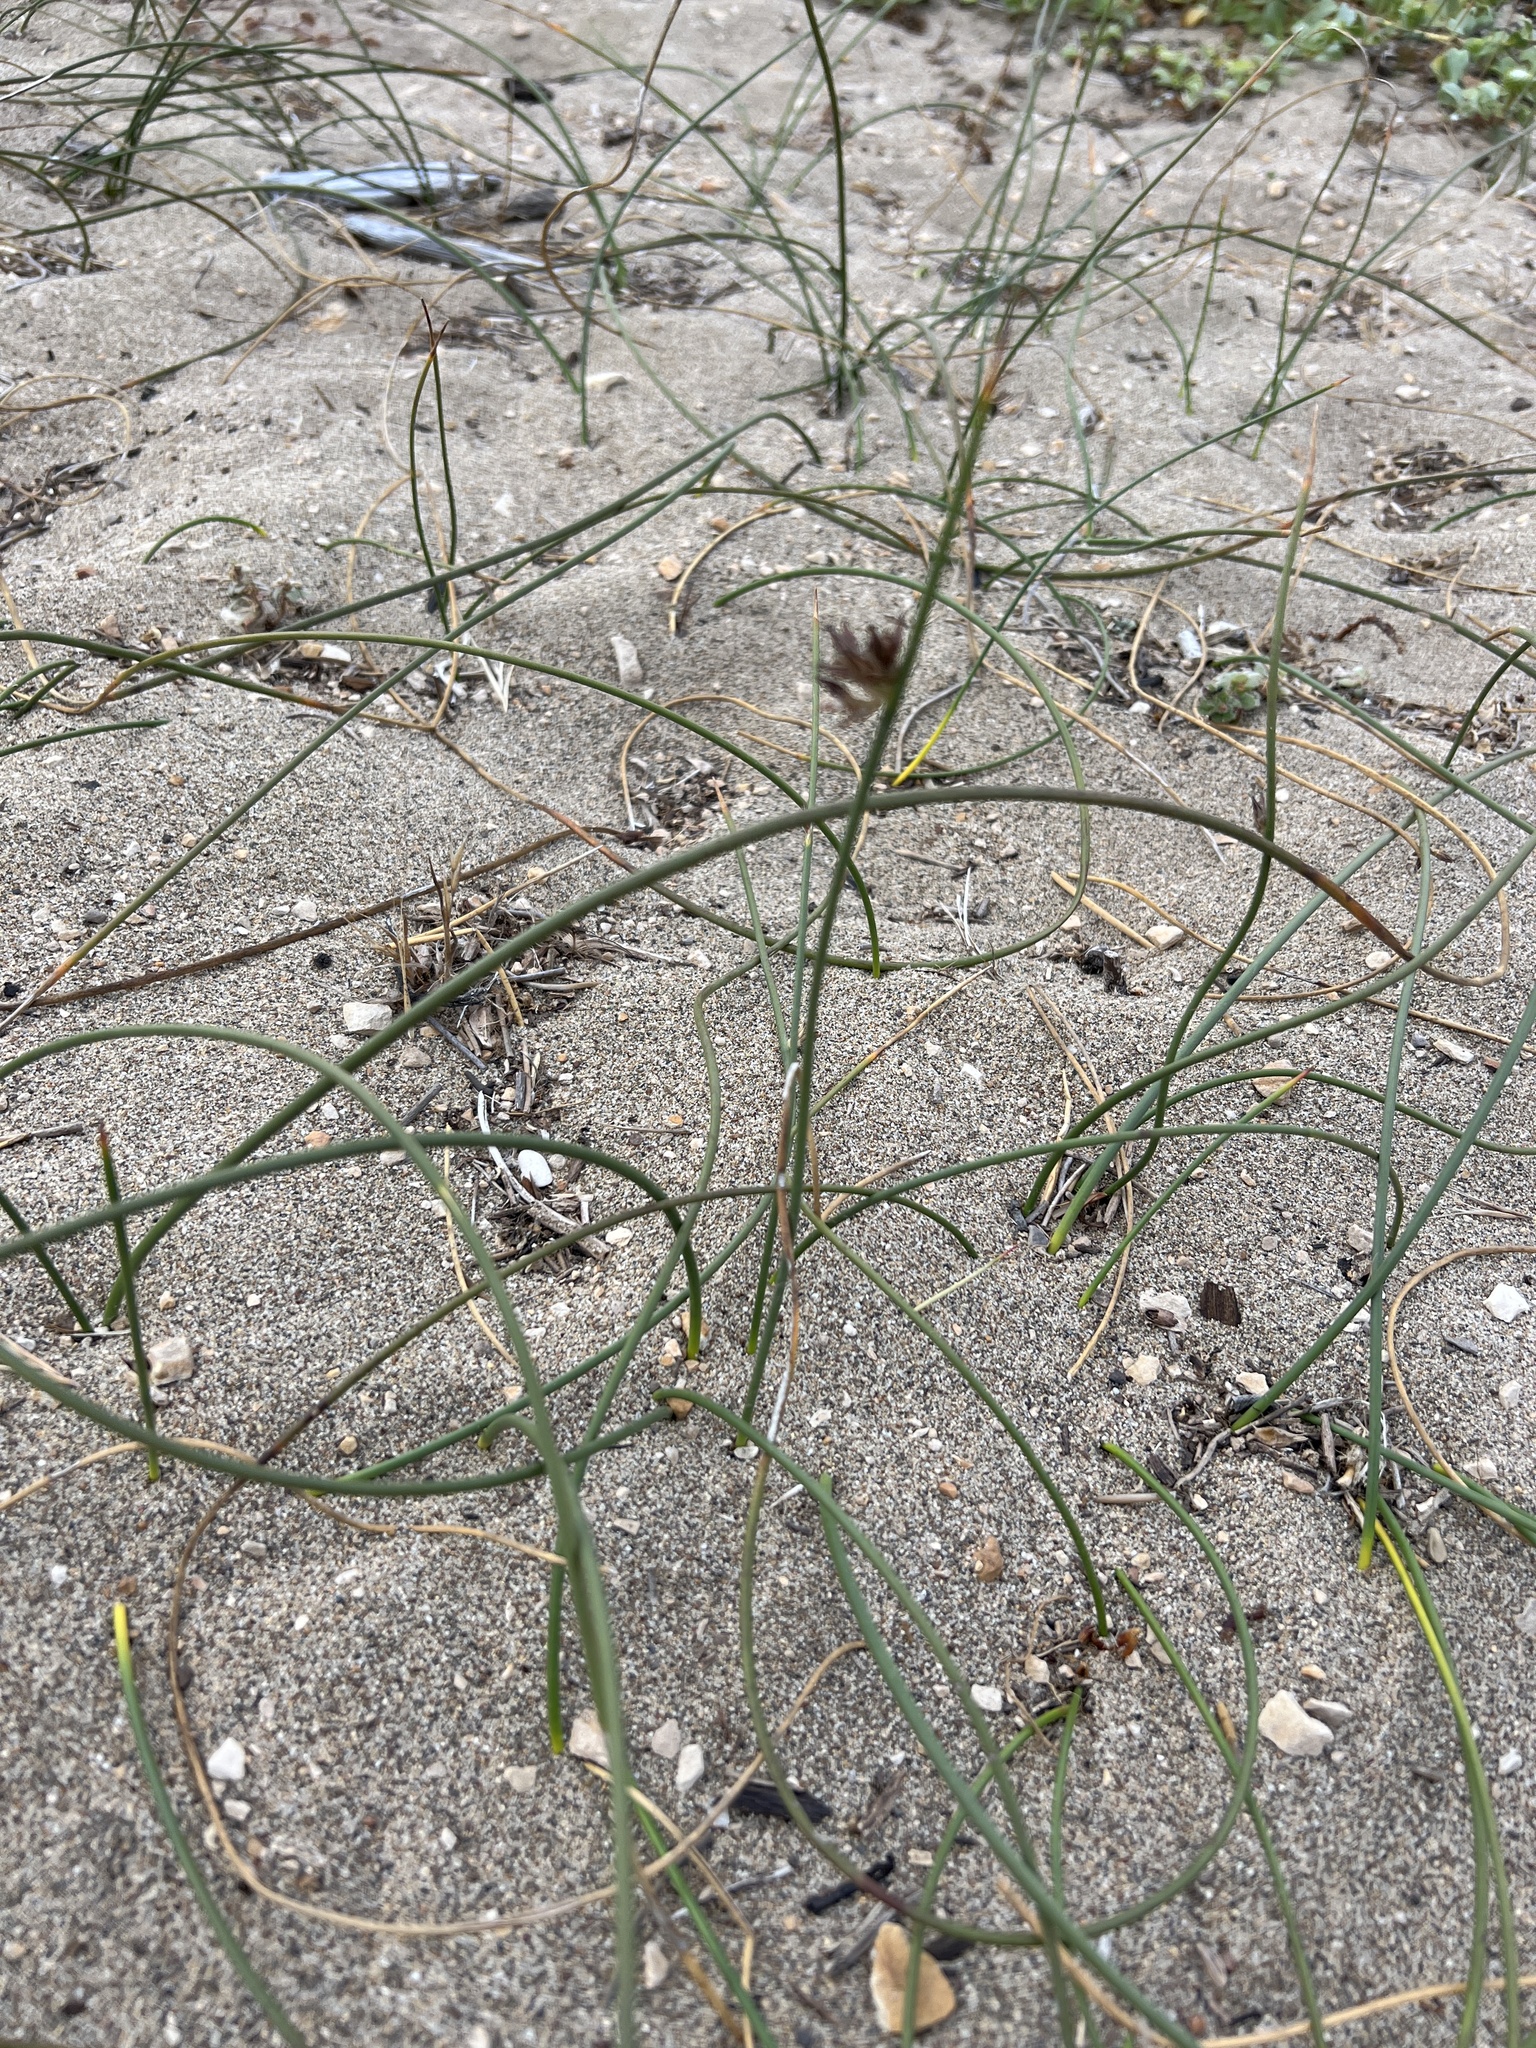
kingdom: Plantae
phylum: Tracheophyta
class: Liliopsida
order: Poales
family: Juncaceae
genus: Juncus
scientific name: Juncus breweri
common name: Brewer's rush
